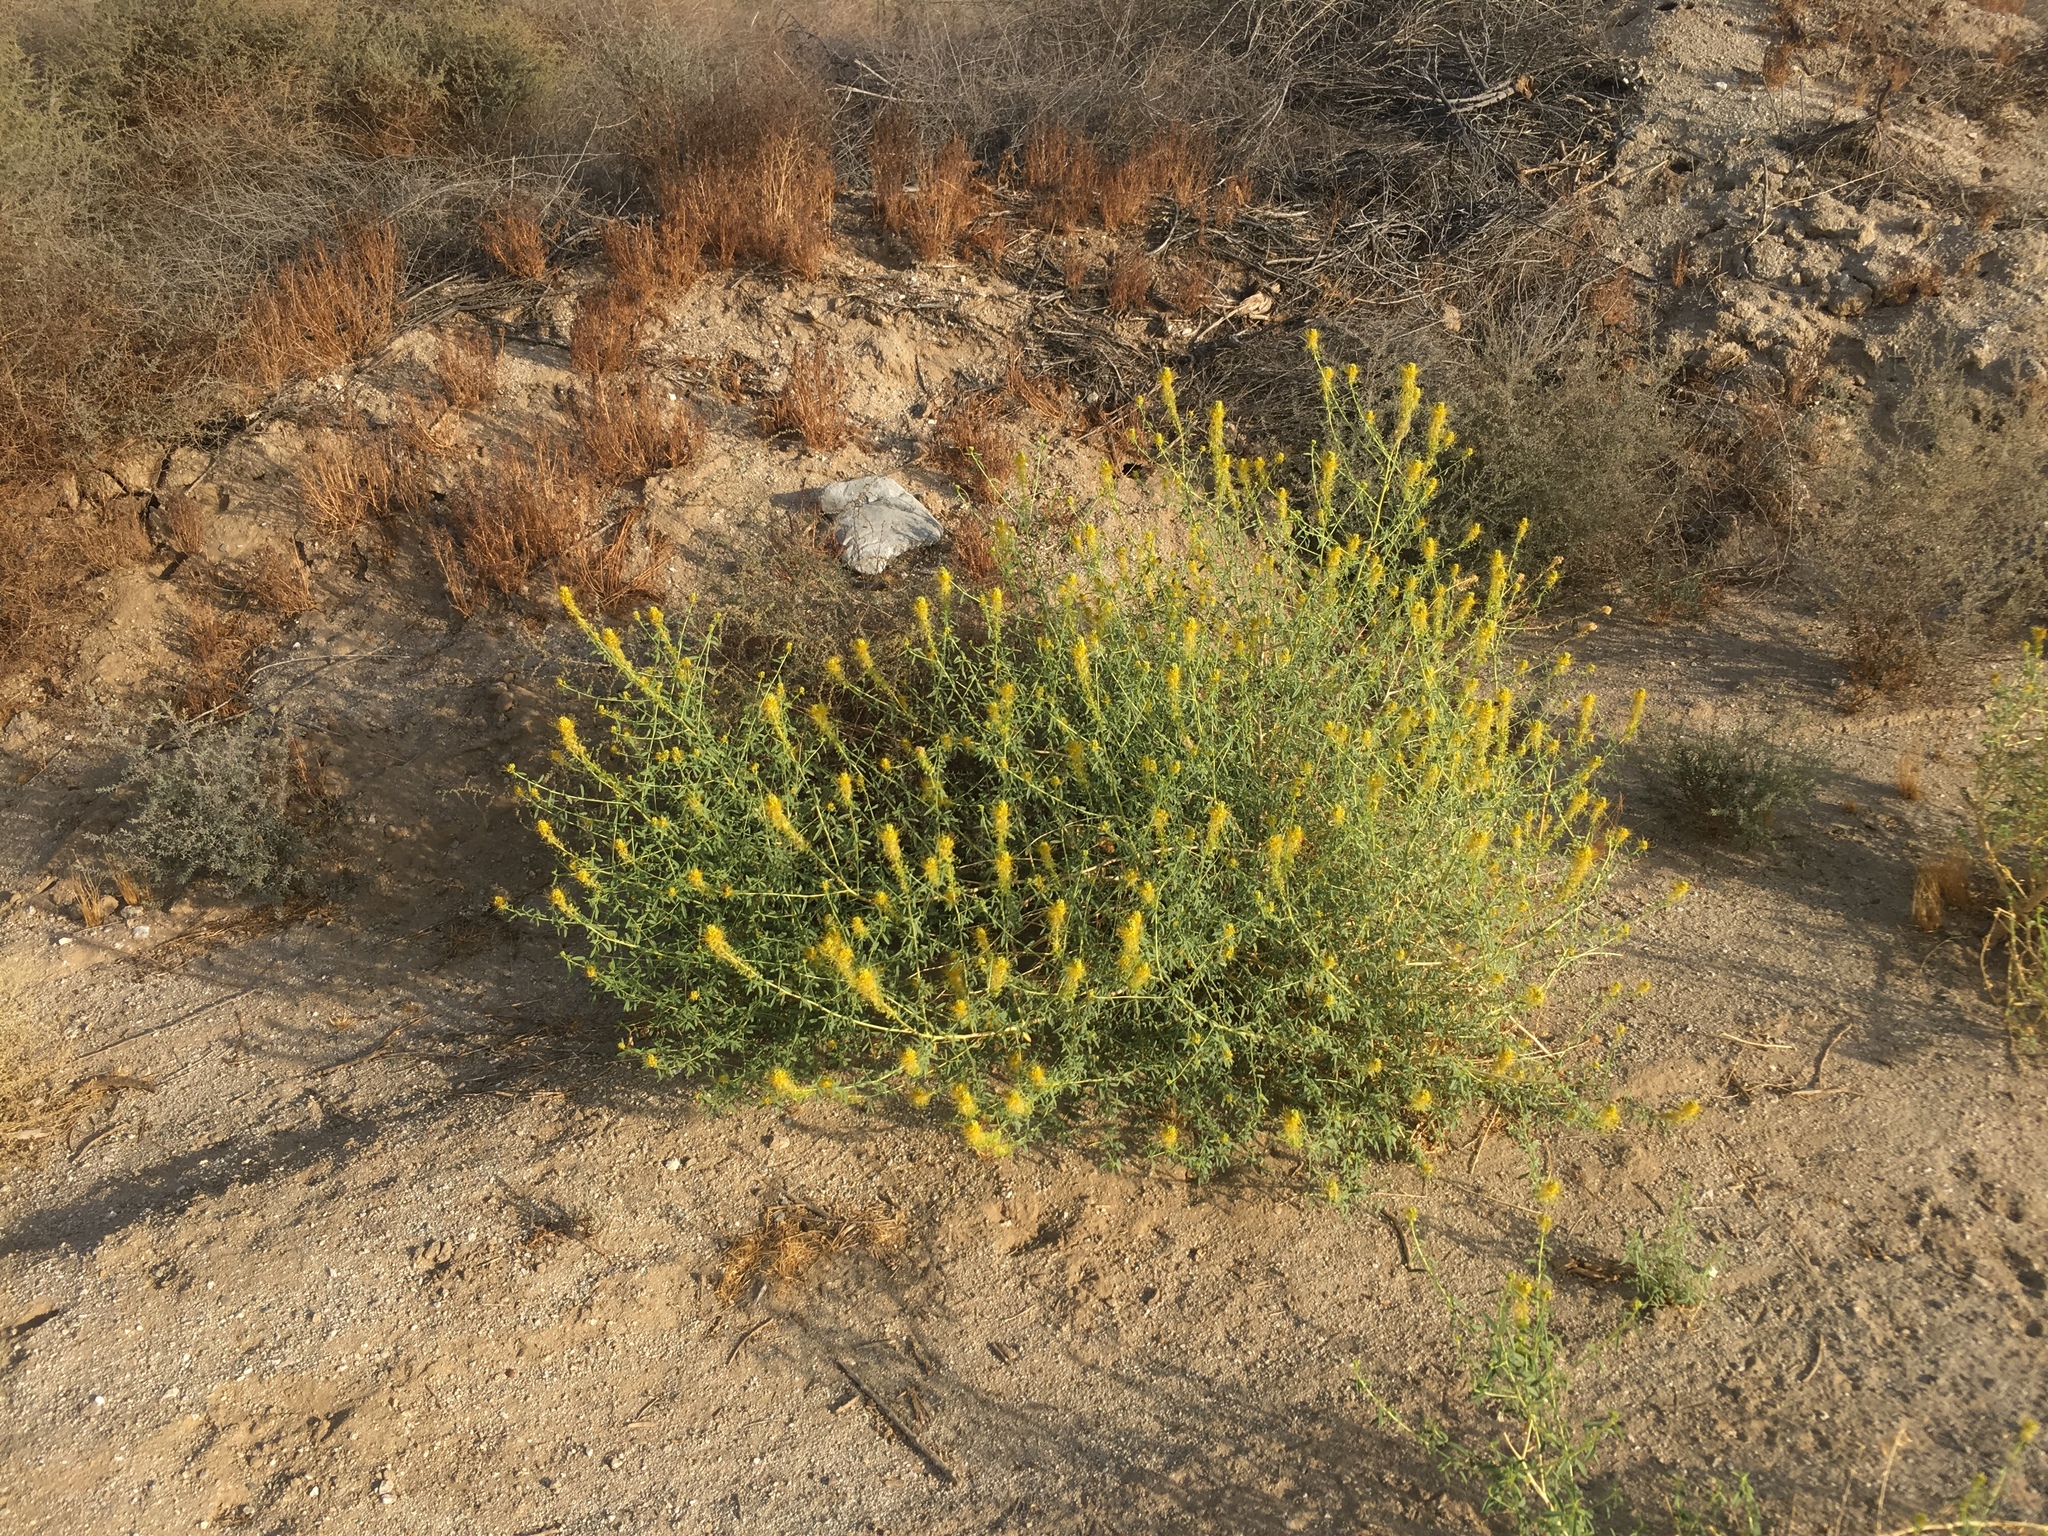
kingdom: Plantae
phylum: Tracheophyta
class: Magnoliopsida
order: Brassicales
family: Cleomaceae
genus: Cleomella
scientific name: Cleomella palmeri
